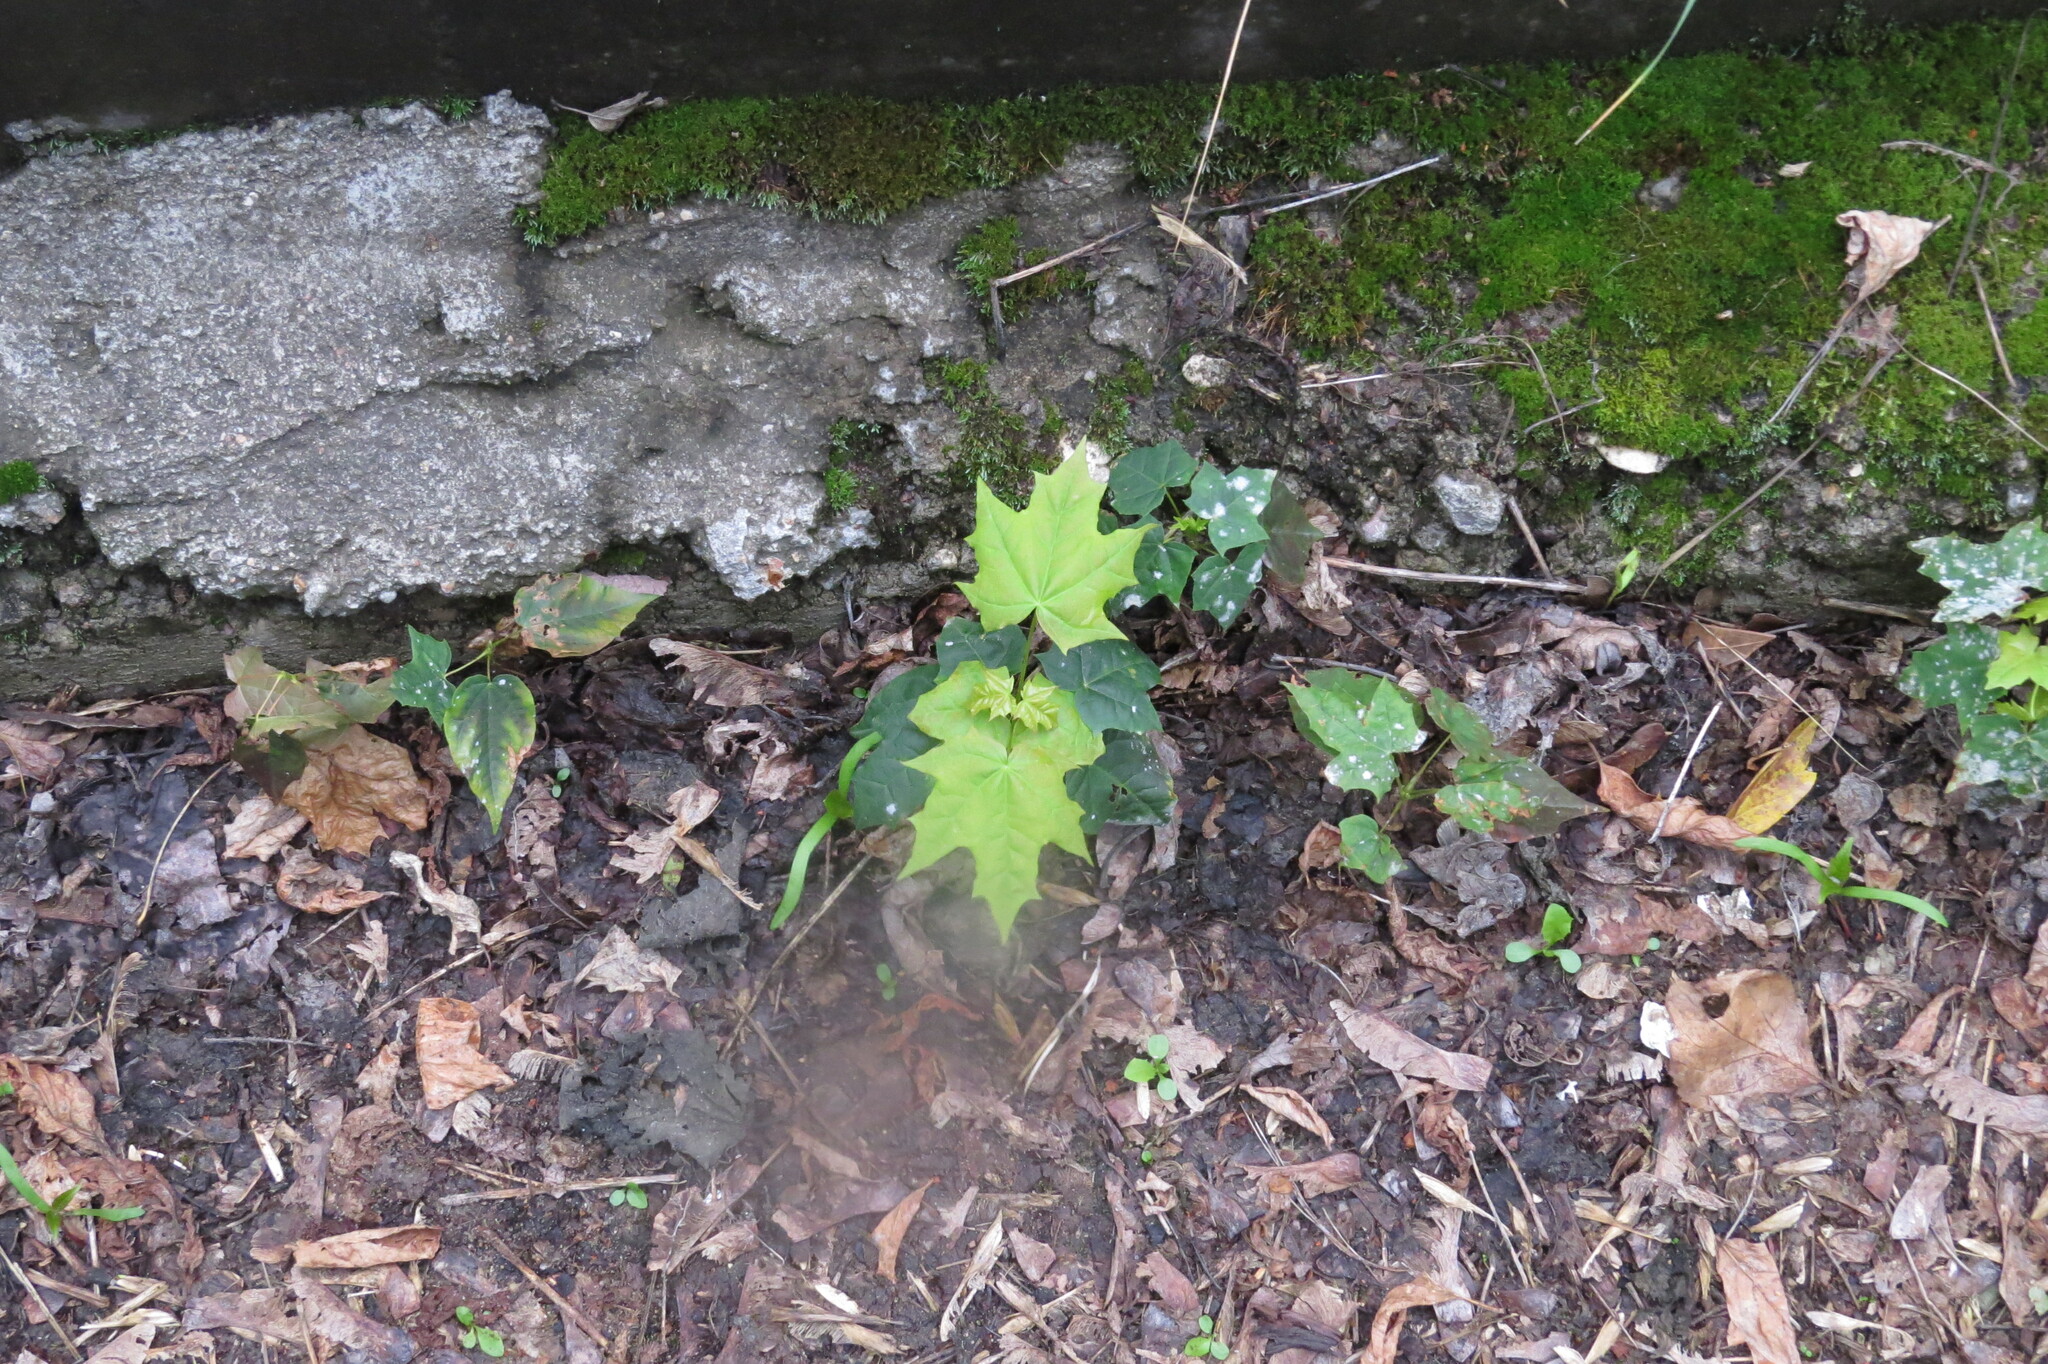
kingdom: Plantae
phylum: Tracheophyta
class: Magnoliopsida
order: Sapindales
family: Sapindaceae
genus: Acer
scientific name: Acer platanoides
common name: Norway maple
